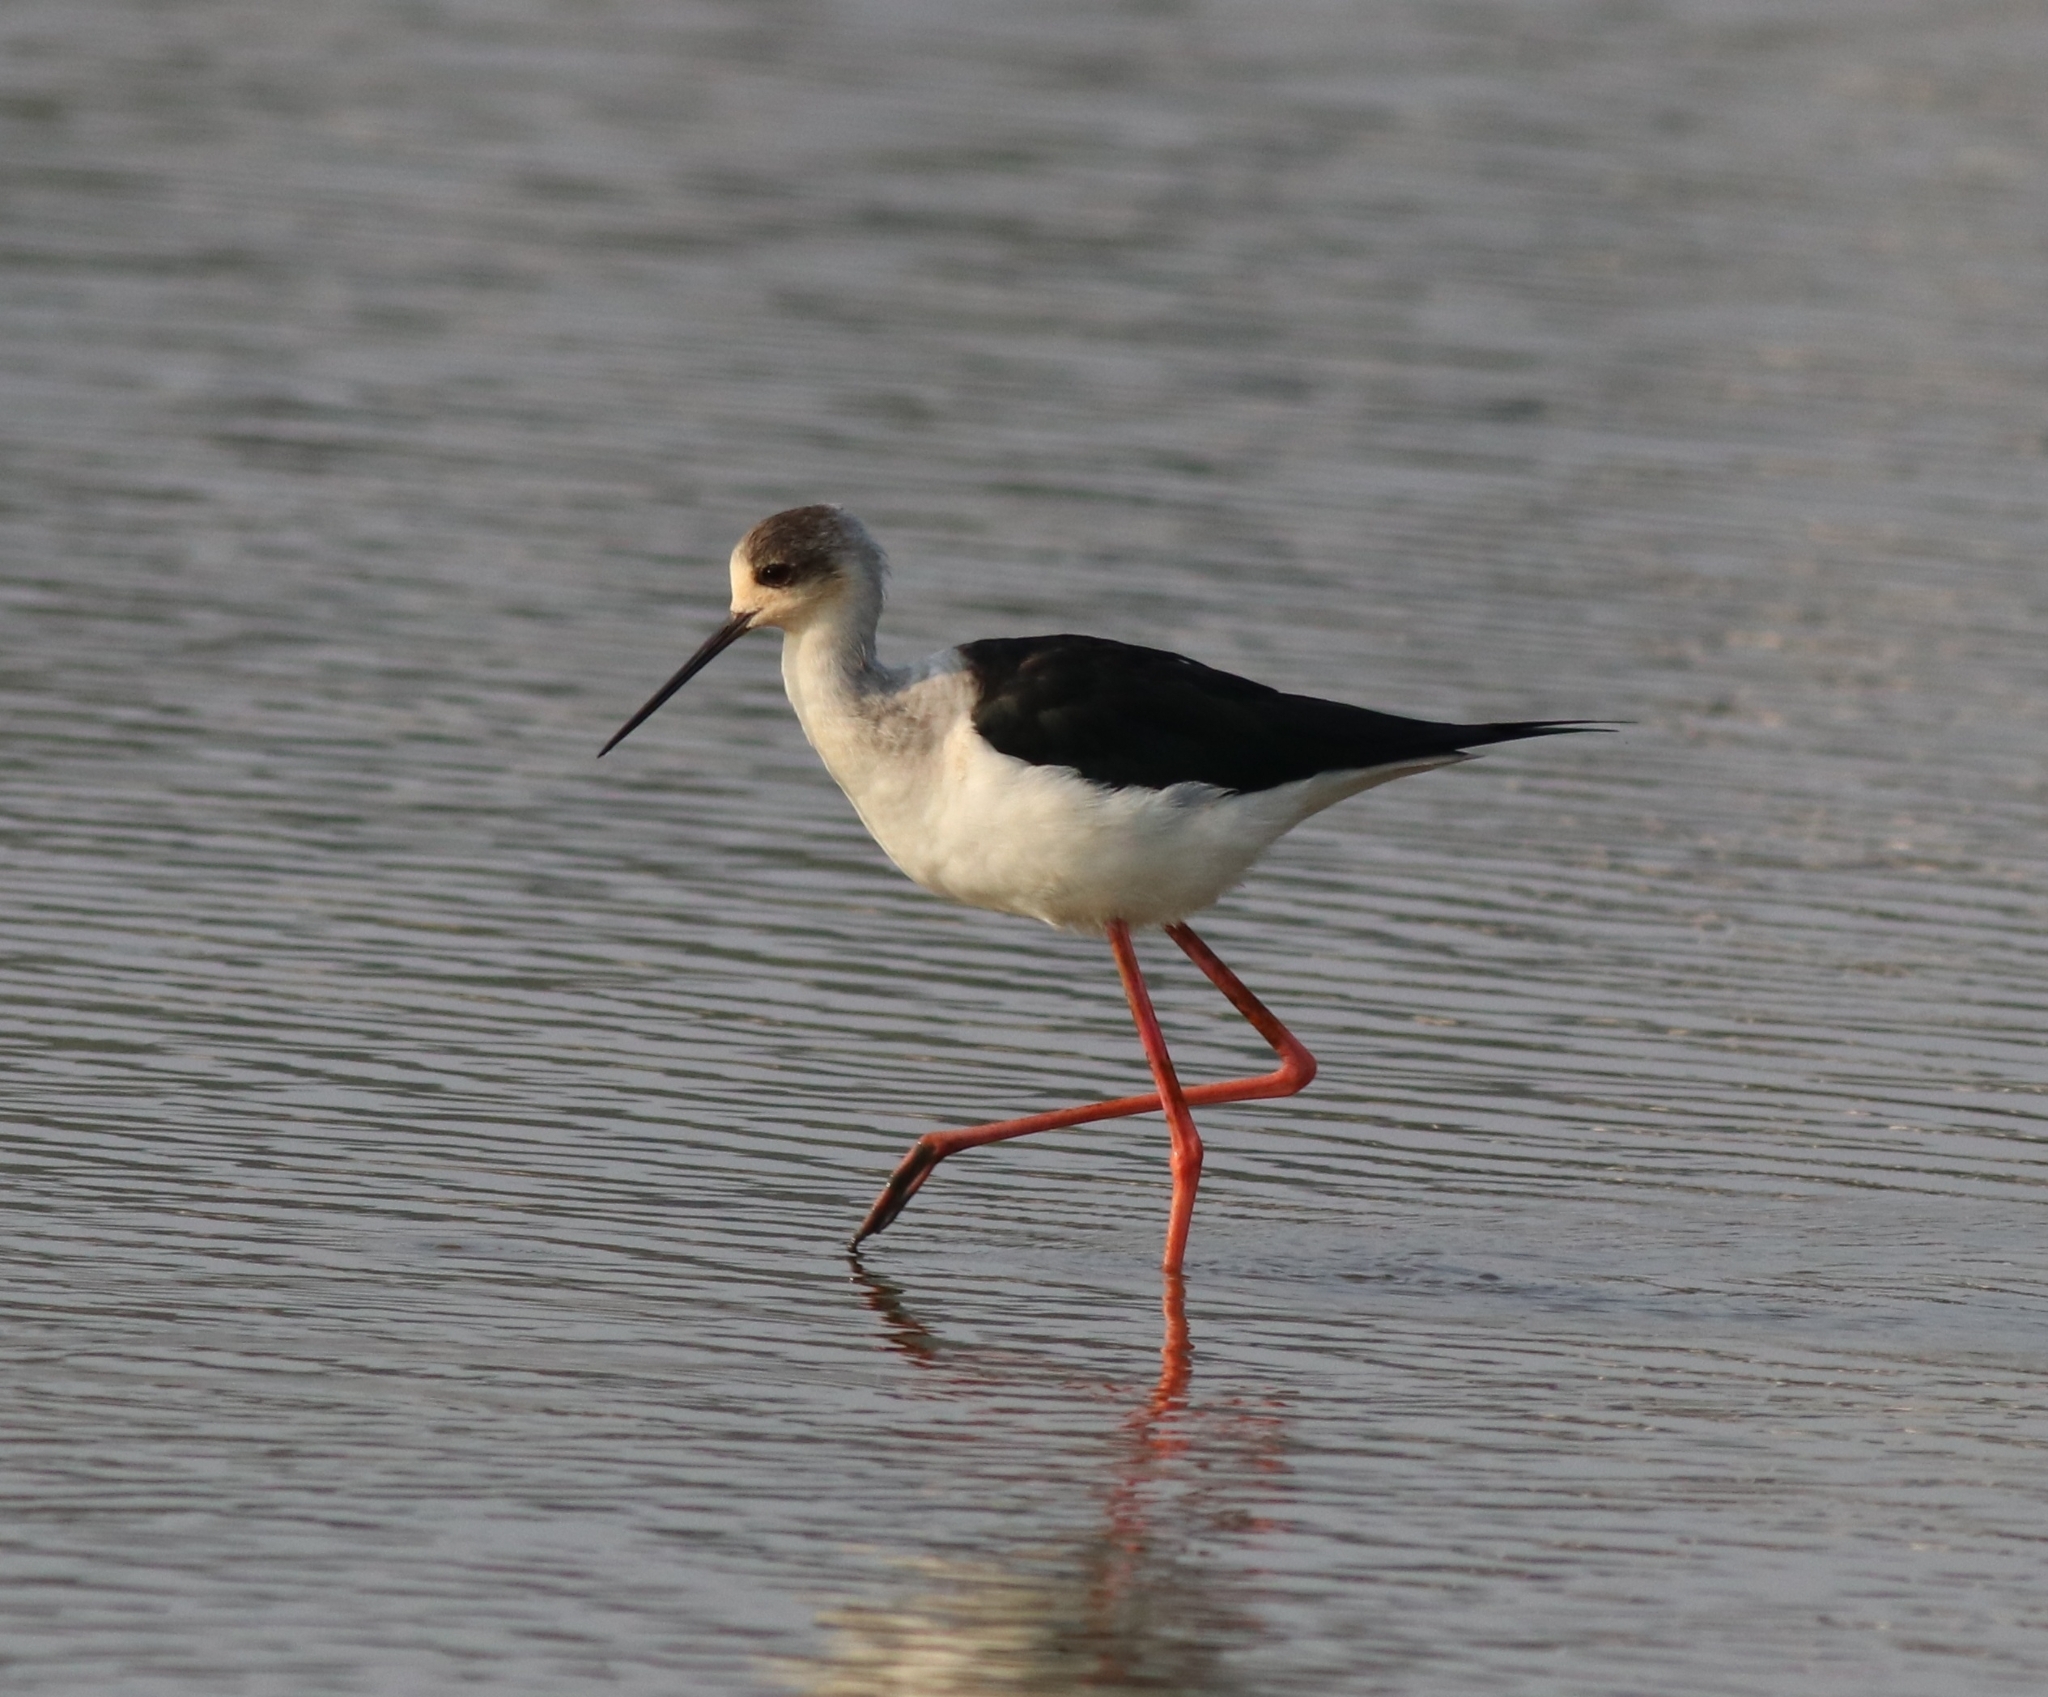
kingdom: Animalia
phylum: Chordata
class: Aves
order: Charadriiformes
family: Recurvirostridae
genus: Himantopus
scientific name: Himantopus himantopus
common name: Black-winged stilt
